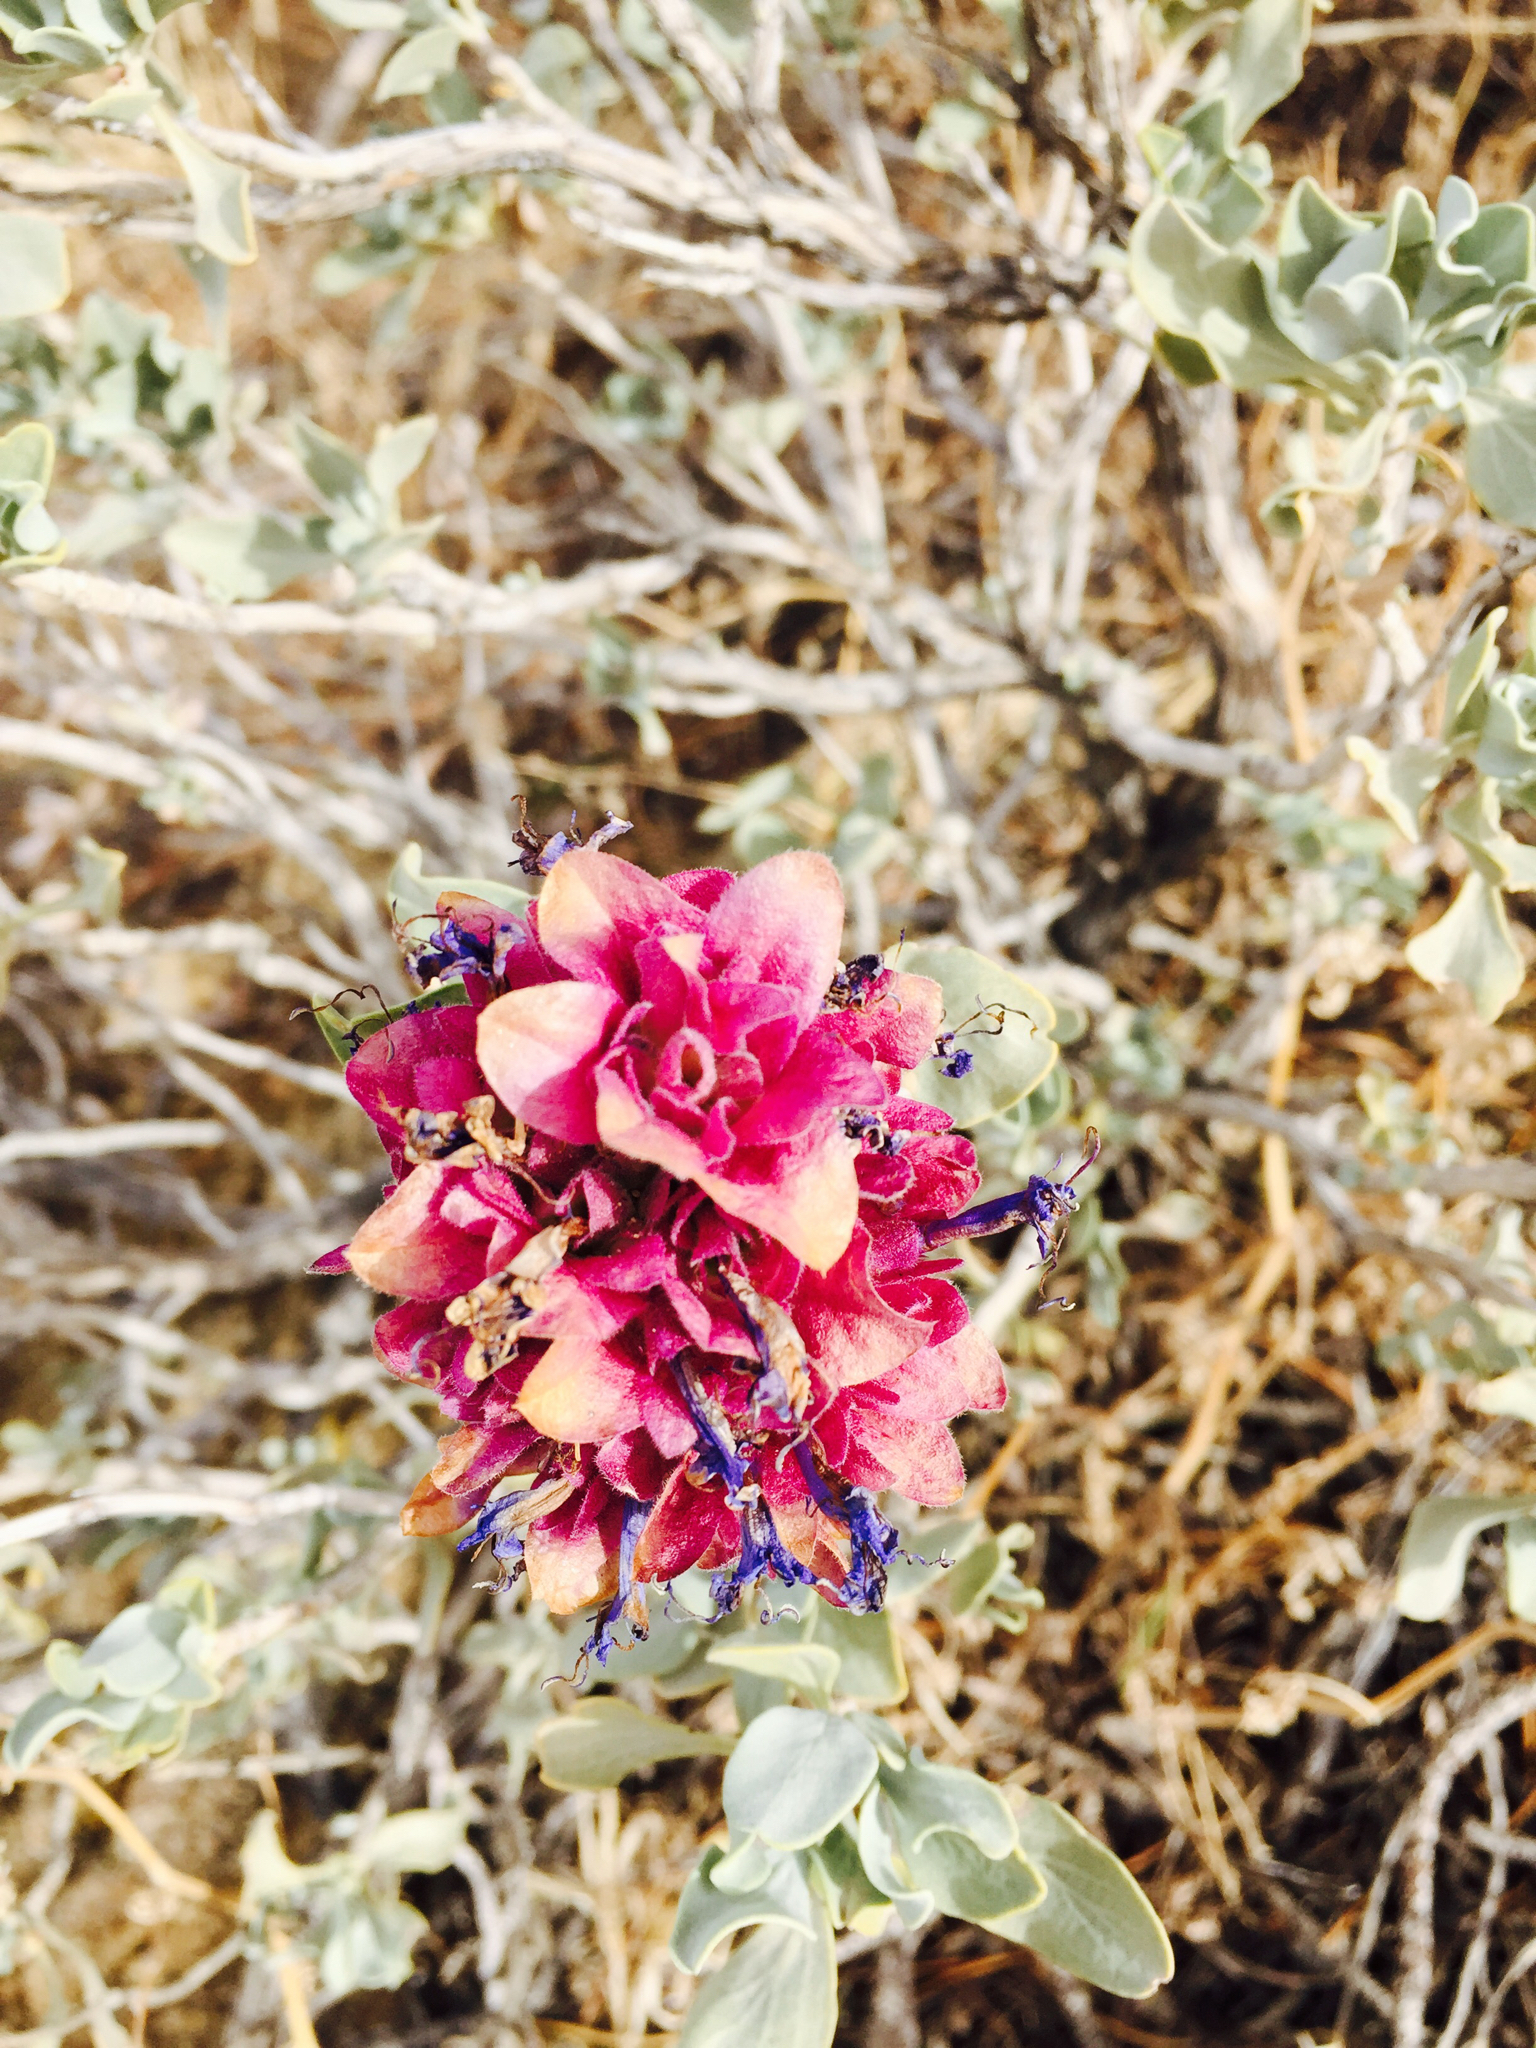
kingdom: Plantae
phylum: Tracheophyta
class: Magnoliopsida
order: Lamiales
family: Lamiaceae
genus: Salvia
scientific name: Salvia pachyphylla
